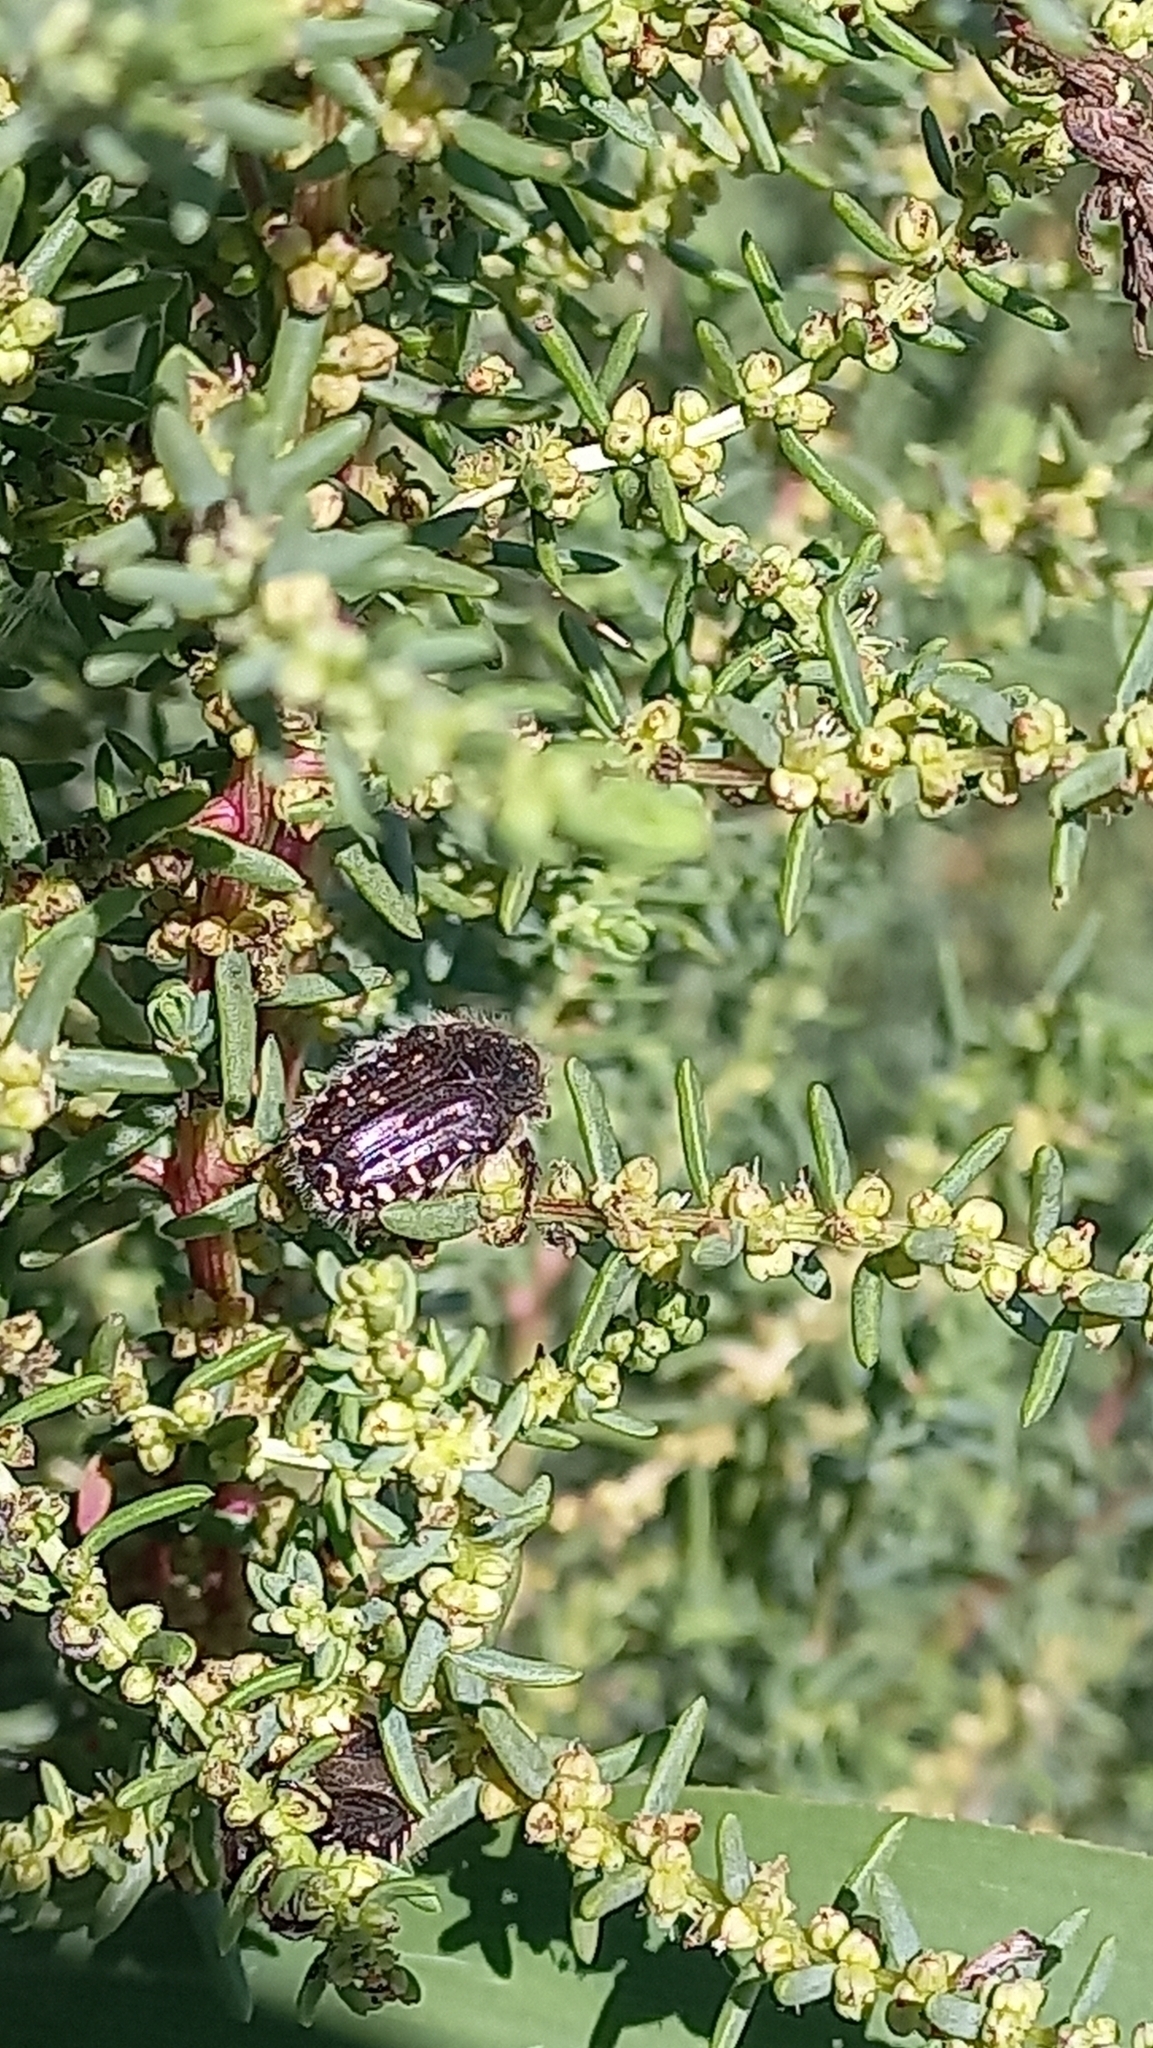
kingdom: Animalia
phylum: Arthropoda
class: Insecta
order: Coleoptera
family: Scarabaeidae
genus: Oxythyrea
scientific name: Oxythyrea funesta
